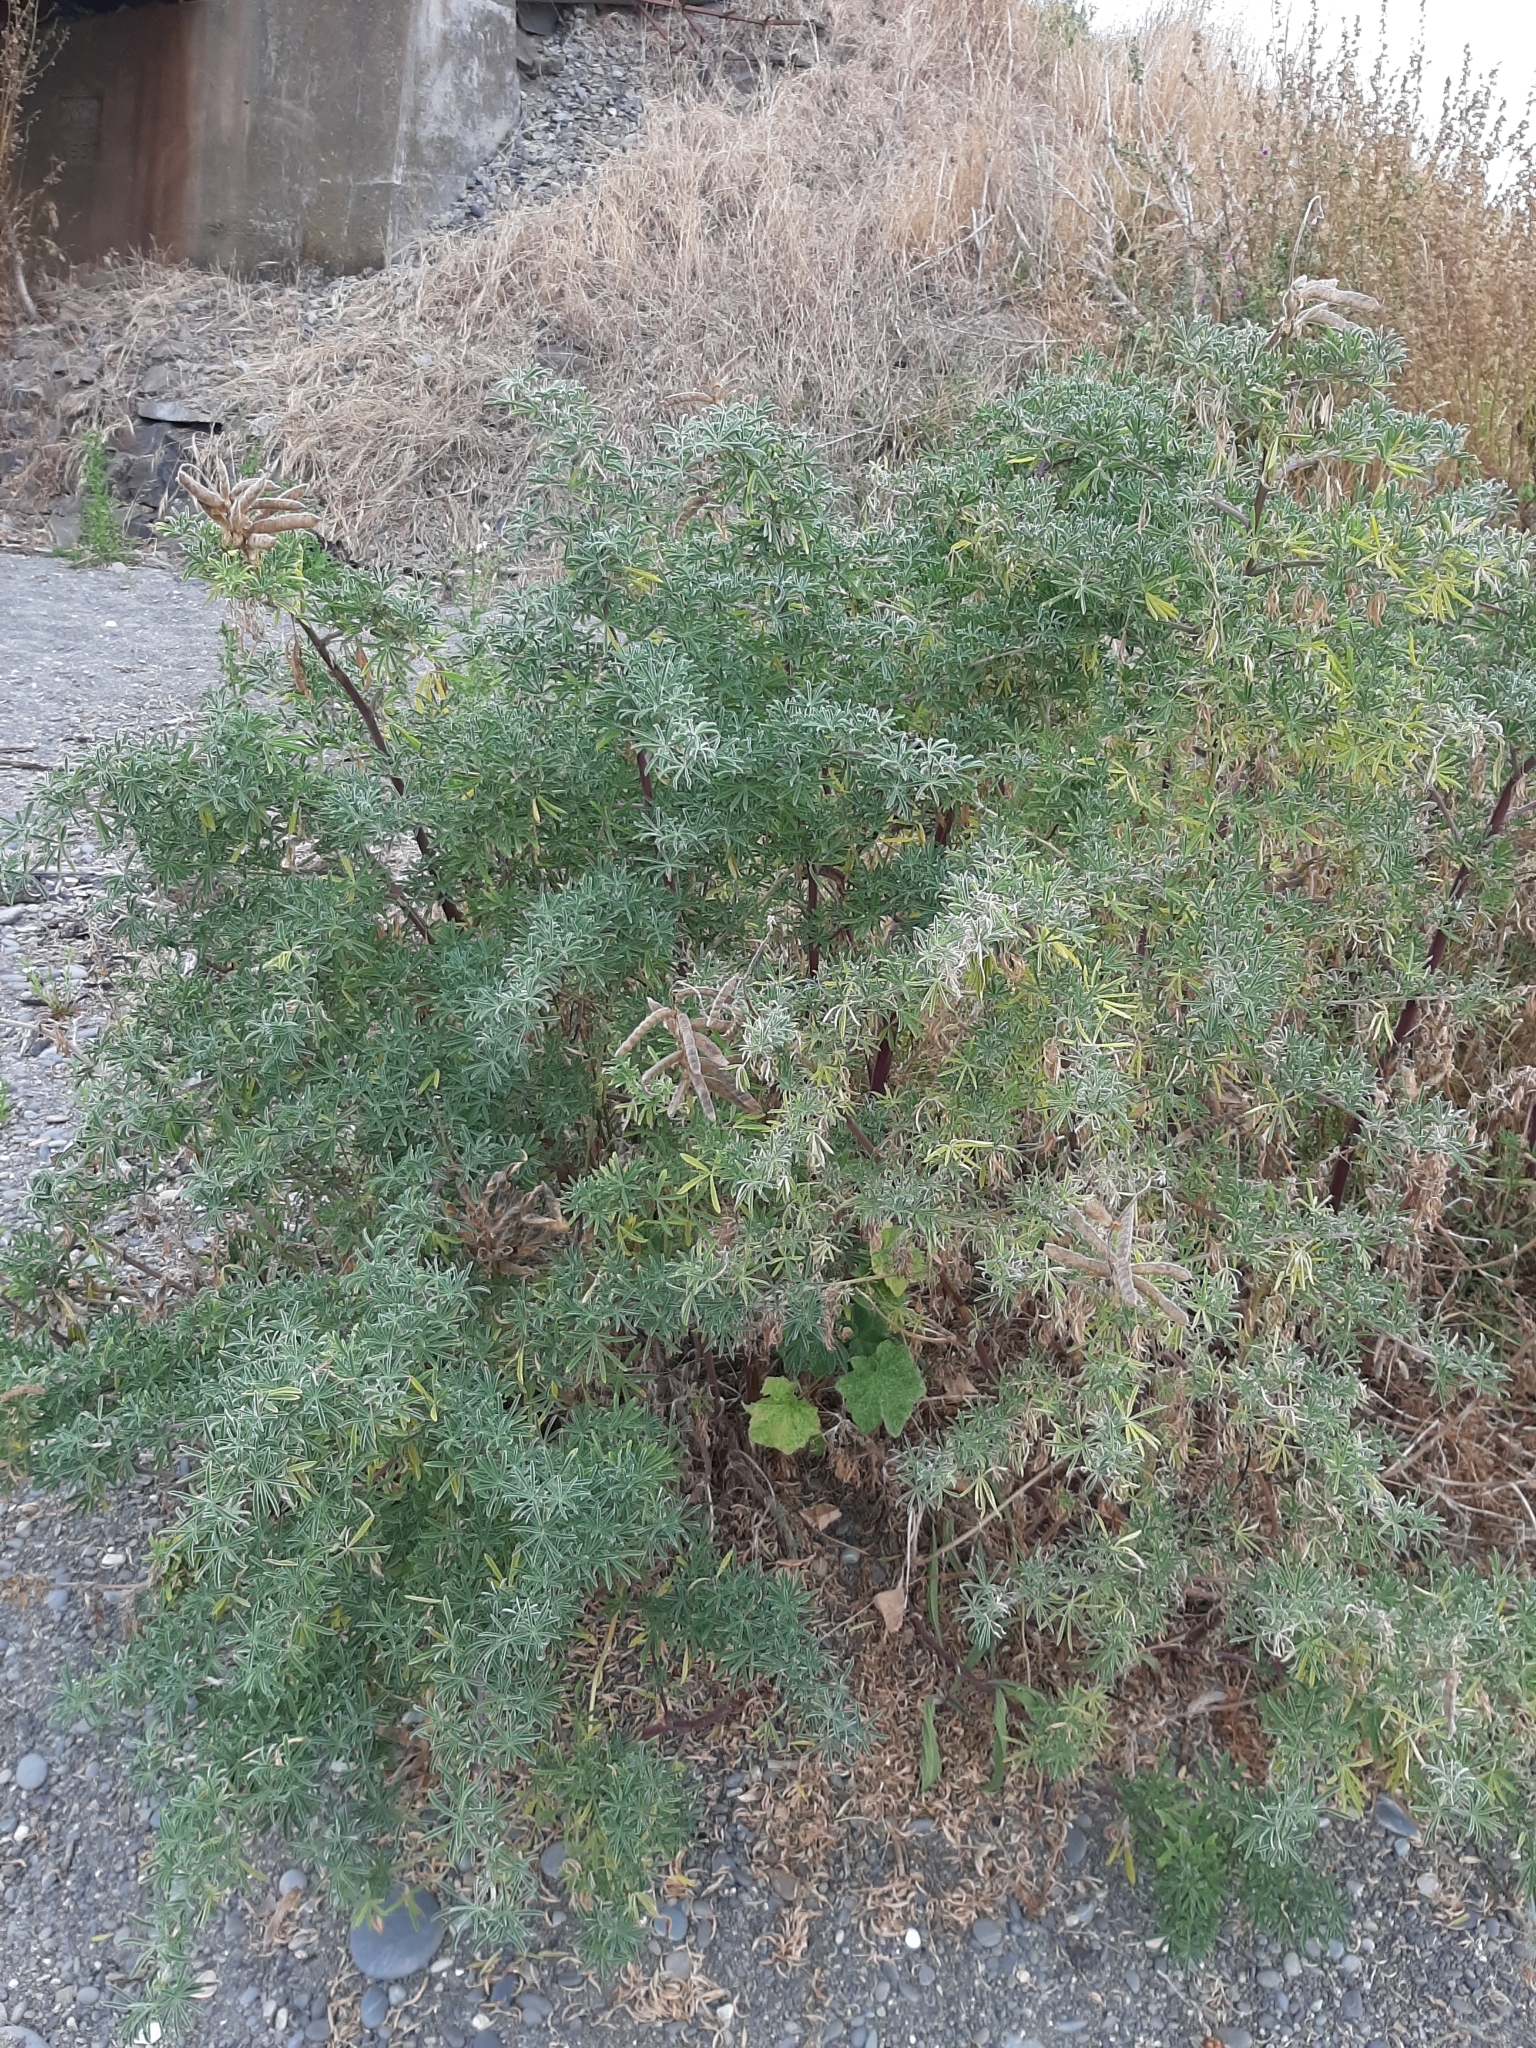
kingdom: Plantae
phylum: Tracheophyta
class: Magnoliopsida
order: Fabales
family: Fabaceae
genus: Lupinus
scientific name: Lupinus arboreus
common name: Yellow bush lupine
